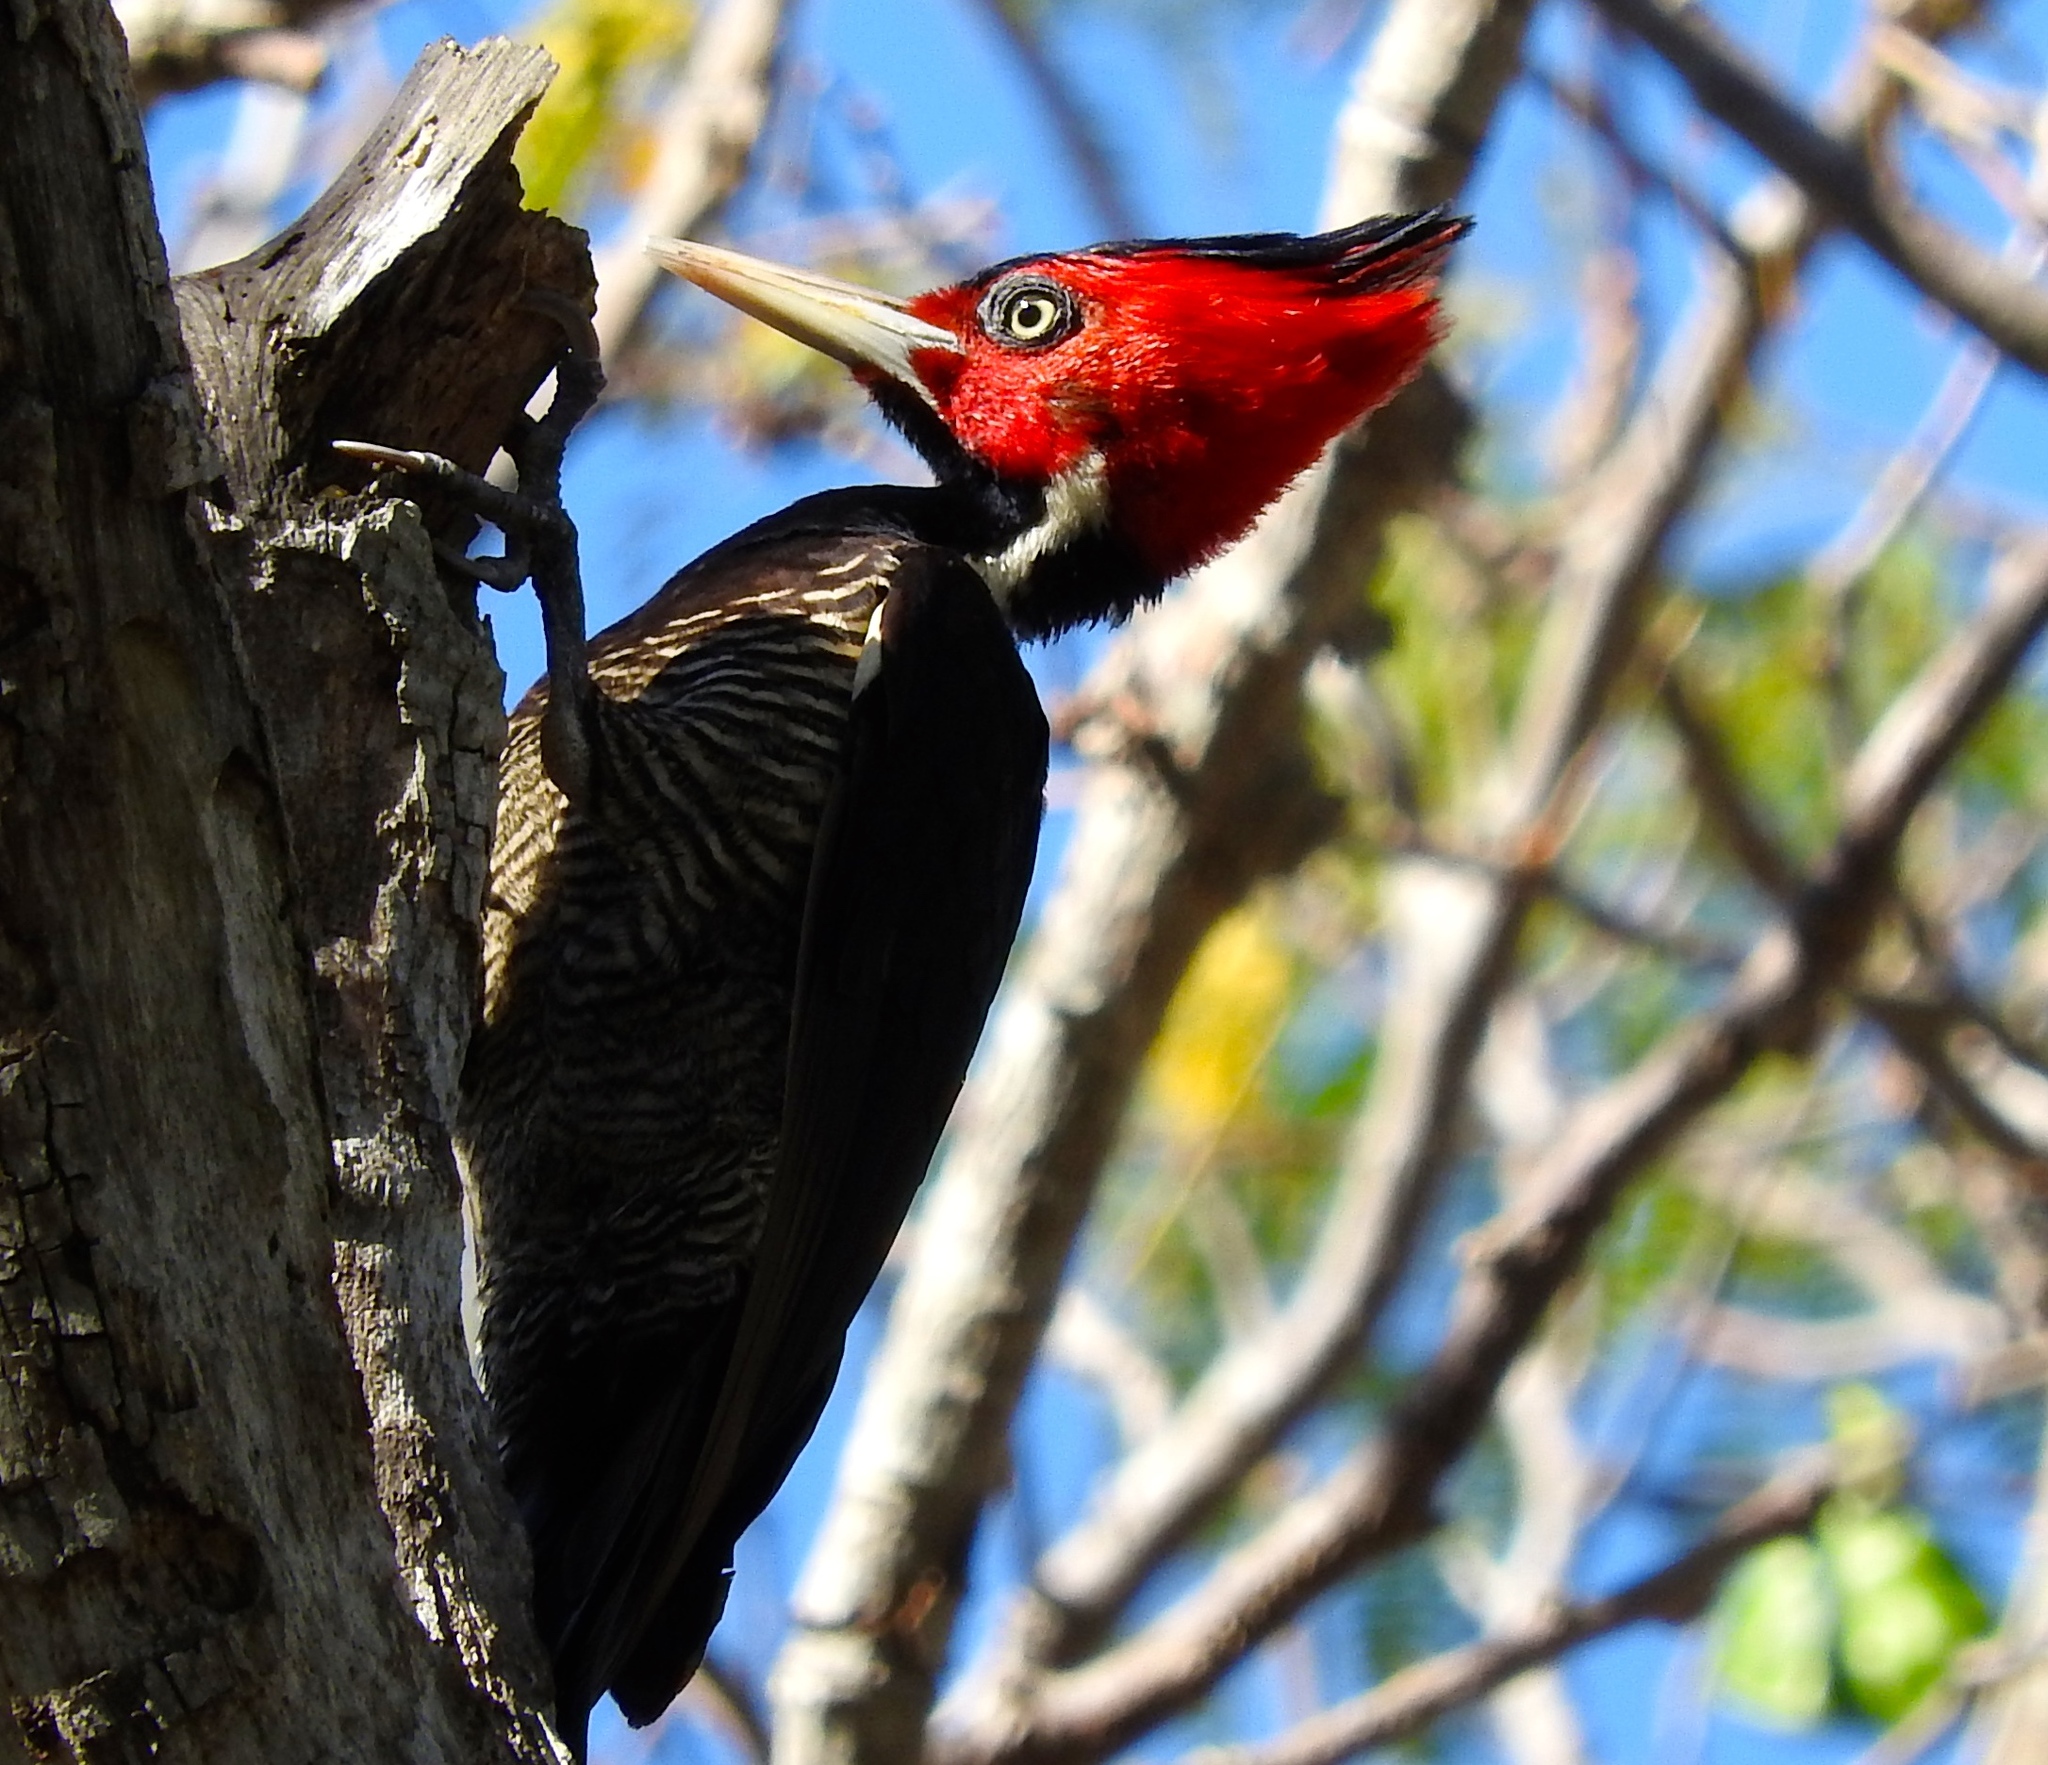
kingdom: Animalia
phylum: Chordata
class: Aves
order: Piciformes
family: Picidae
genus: Campephilus
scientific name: Campephilus guatemalensis
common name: Pale-billed woodpecker
